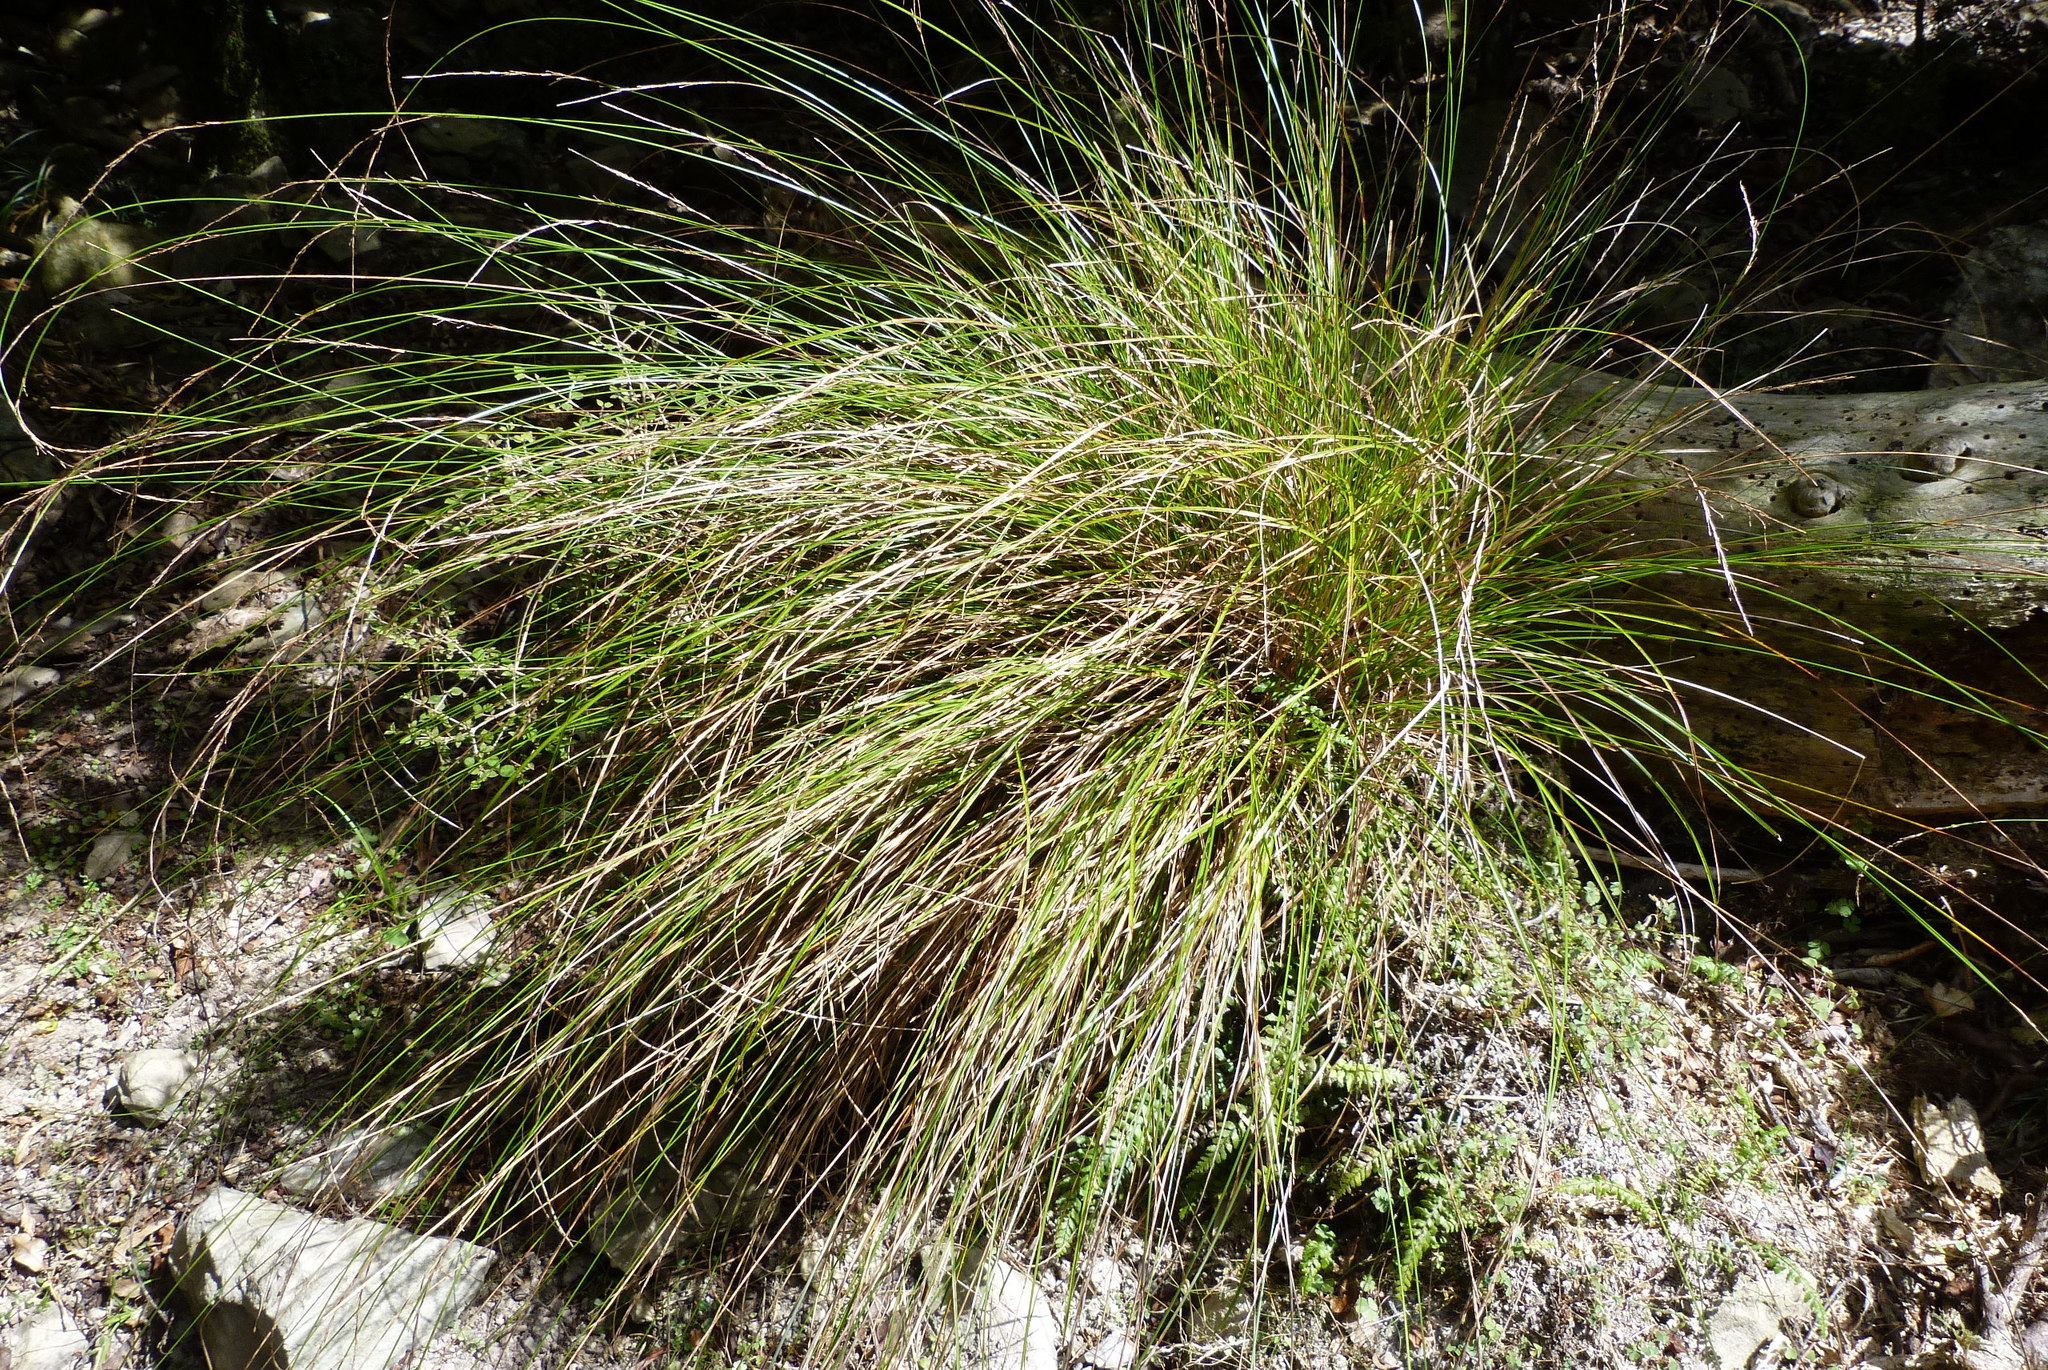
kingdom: Plantae
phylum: Tracheophyta
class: Liliopsida
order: Poales
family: Cyperaceae
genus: Carex
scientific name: Carex subviridis
